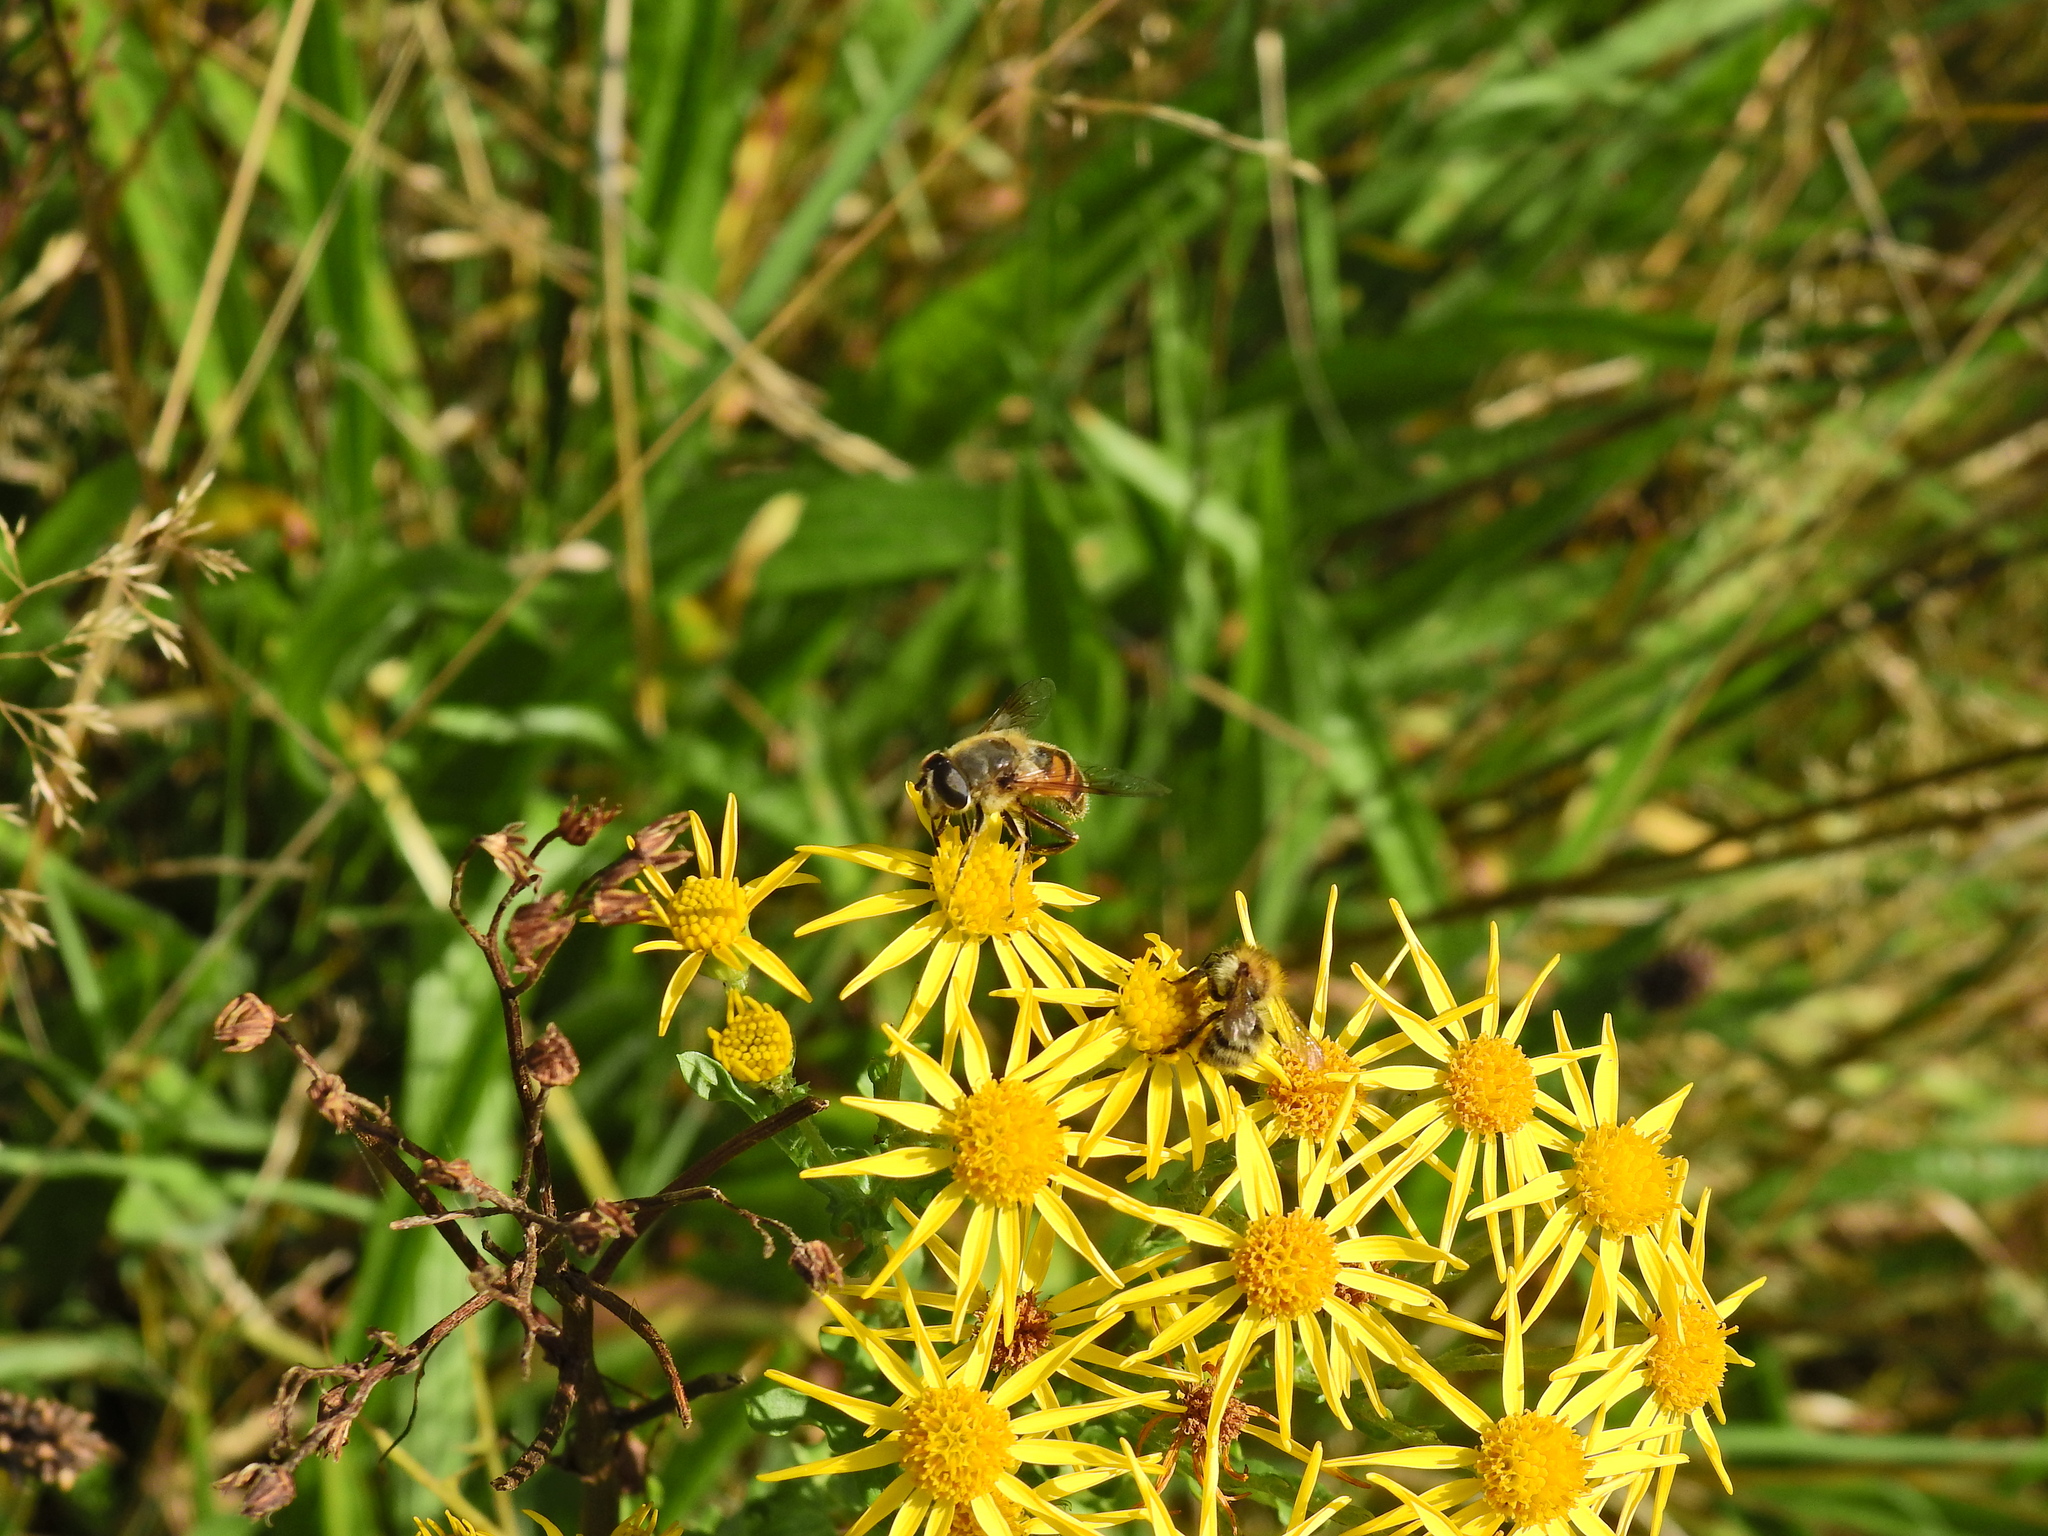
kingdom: Animalia
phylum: Arthropoda
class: Insecta
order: Diptera
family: Syrphidae
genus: Eristalis
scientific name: Eristalis tenax
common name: Drone fly
